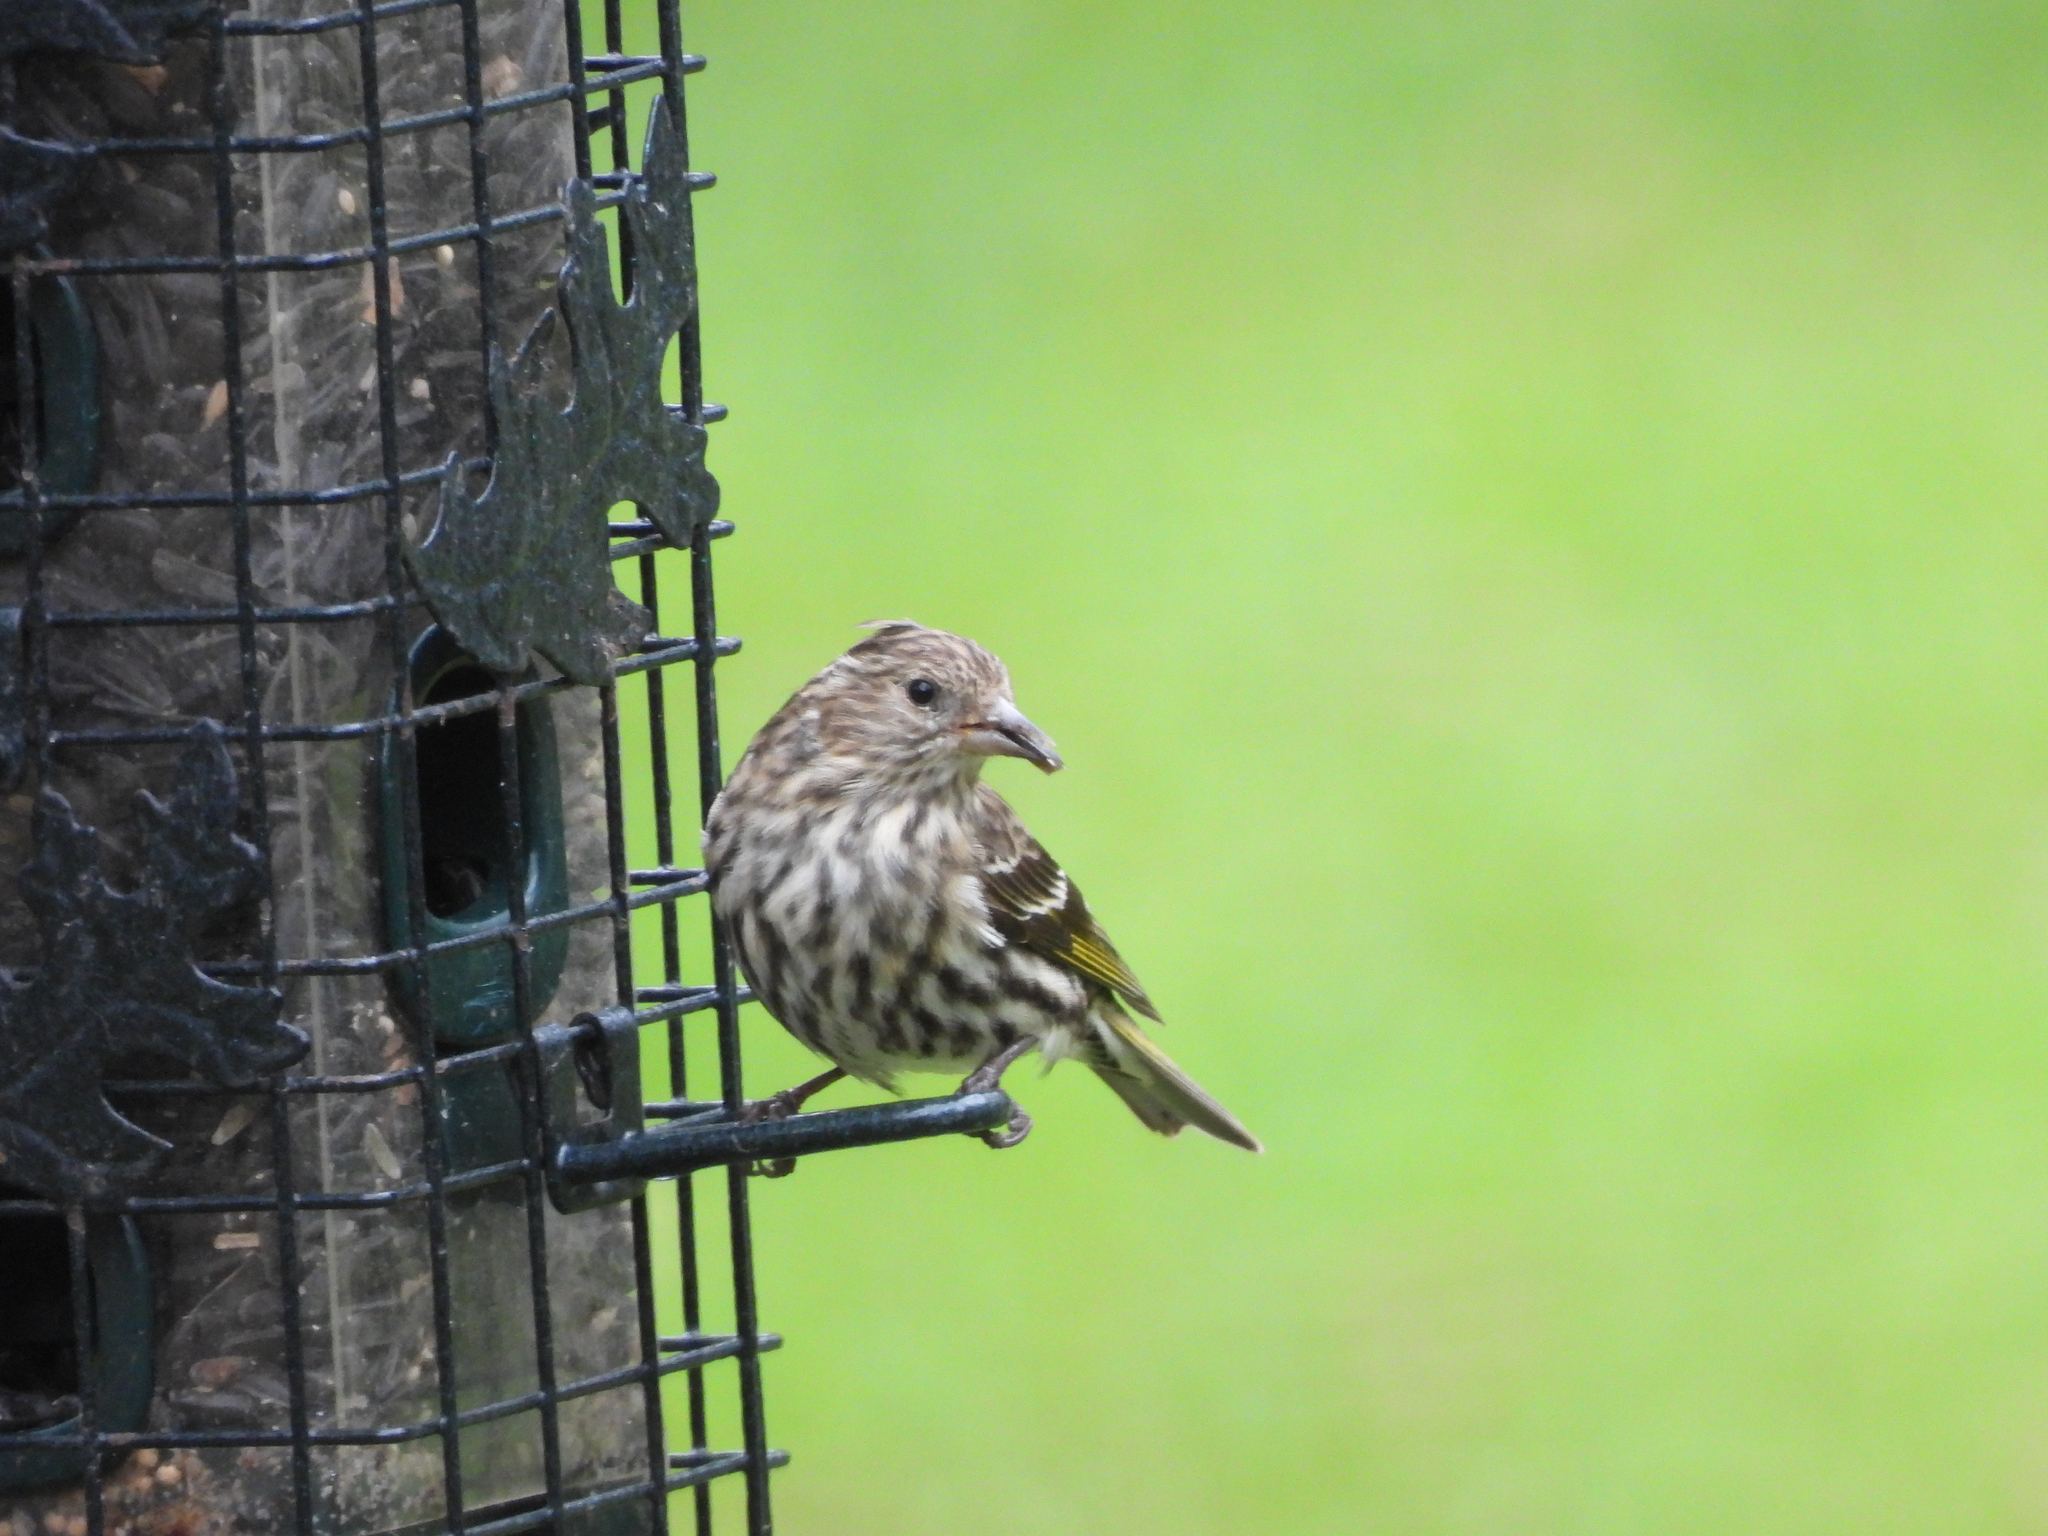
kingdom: Animalia
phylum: Chordata
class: Aves
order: Passeriformes
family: Fringillidae
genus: Spinus
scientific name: Spinus pinus
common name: Pine siskin
